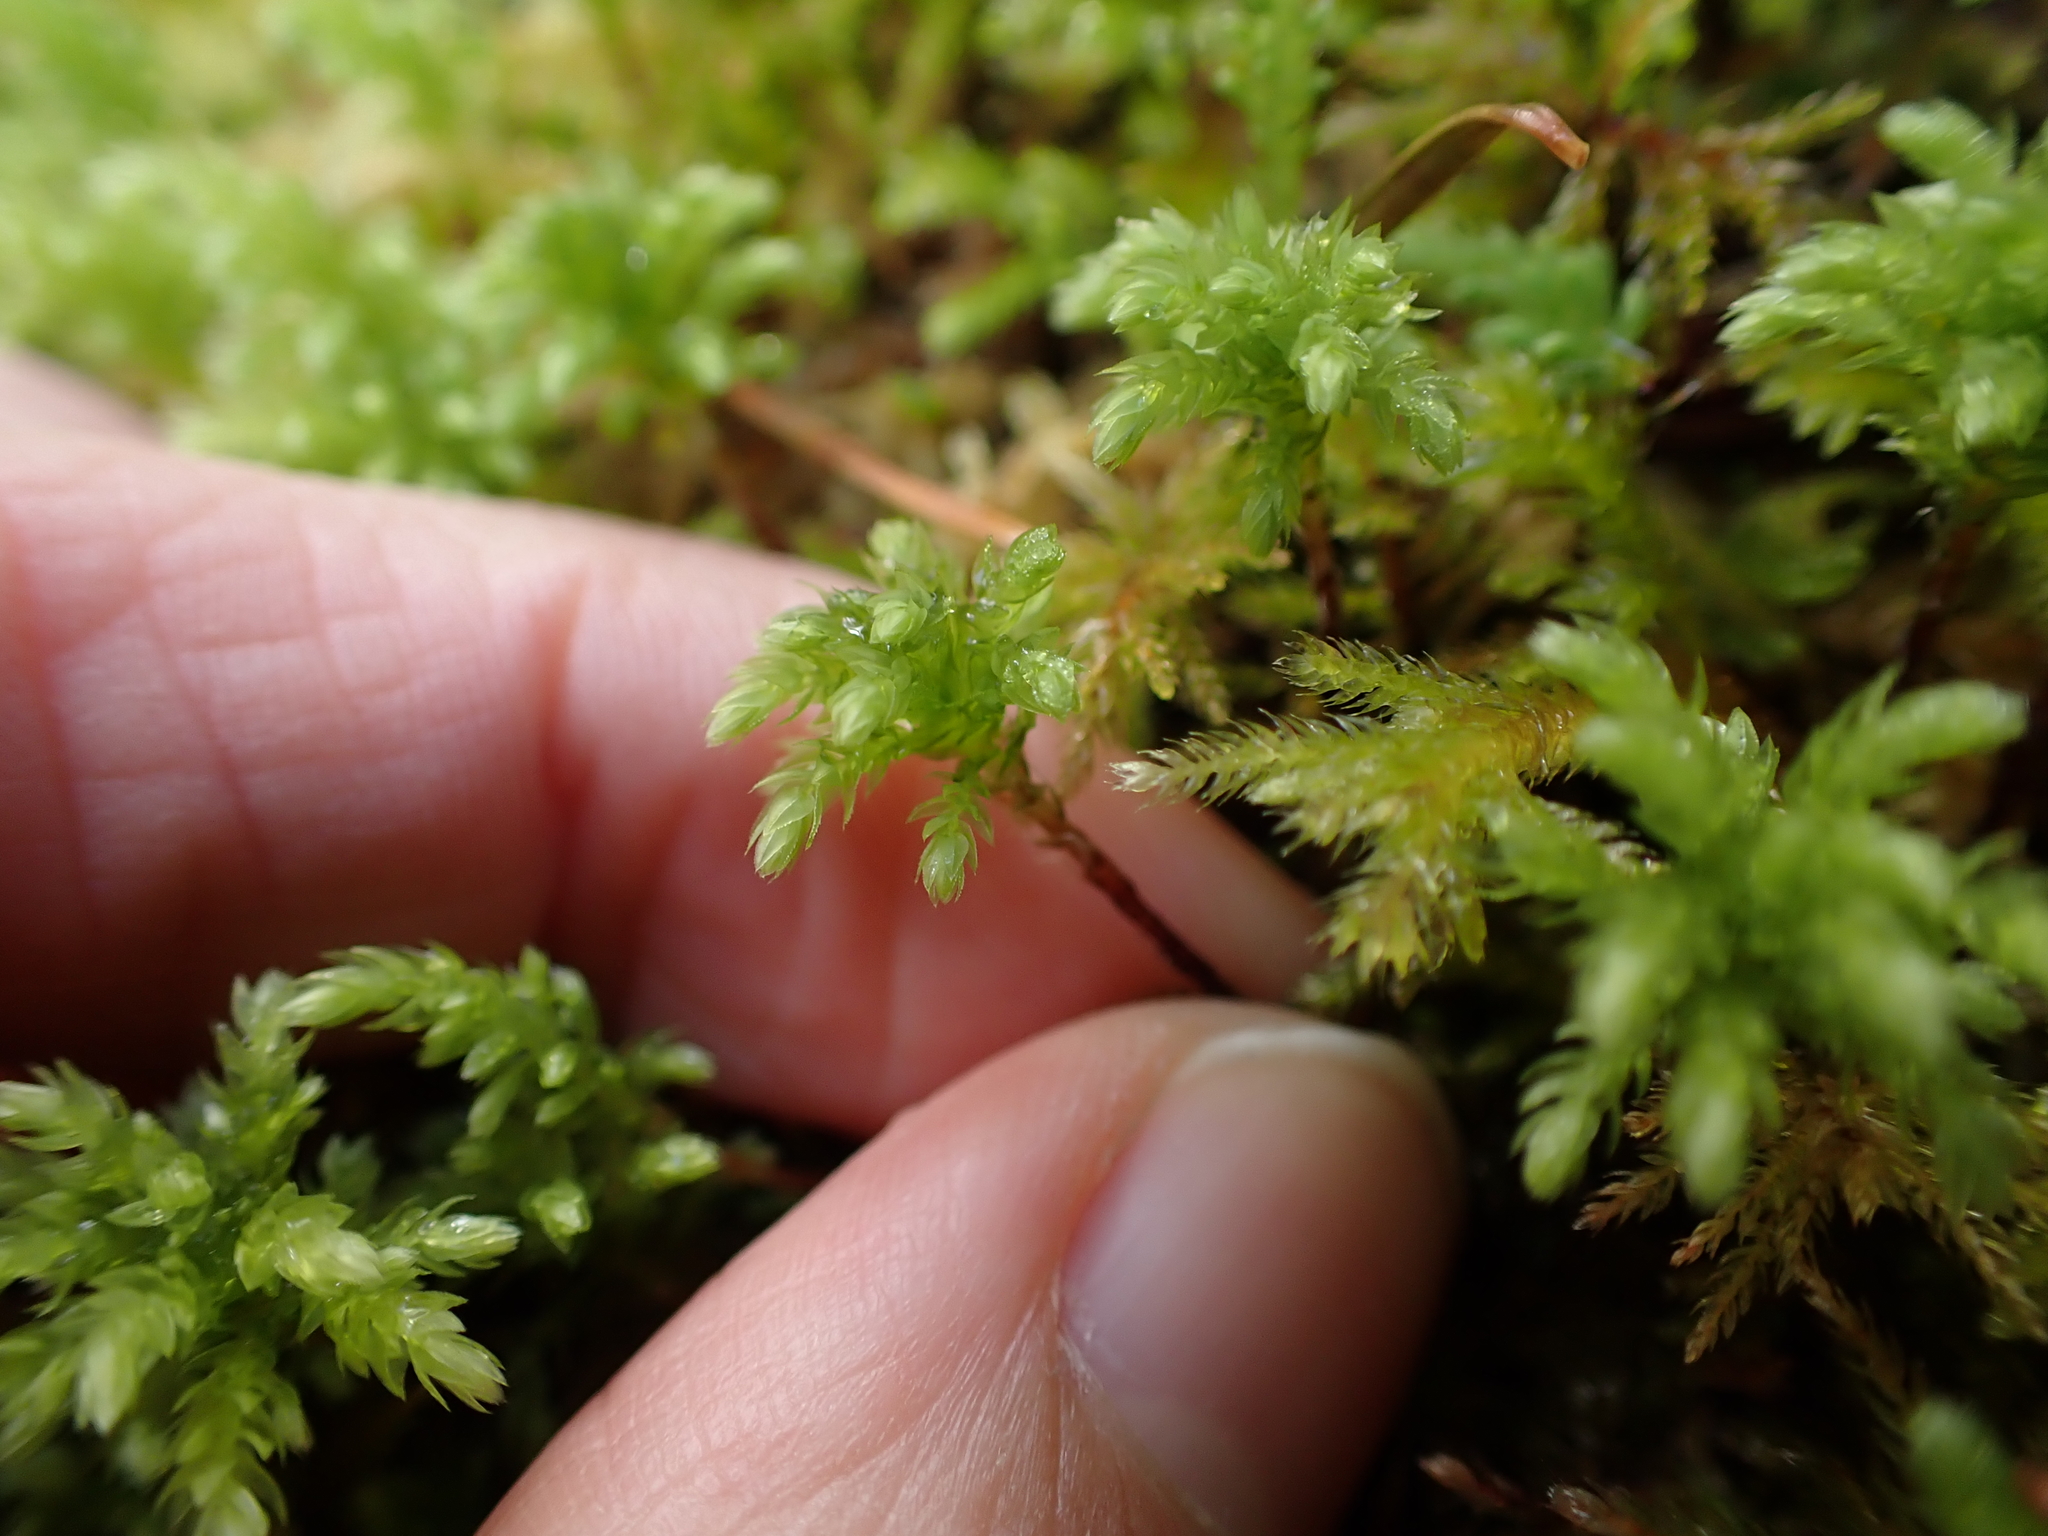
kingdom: Plantae
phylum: Bryophyta
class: Bryopsida
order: Bryales
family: Mniaceae
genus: Leucolepis
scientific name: Leucolepis acanthoneura
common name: Leucolepis umbrella moss
